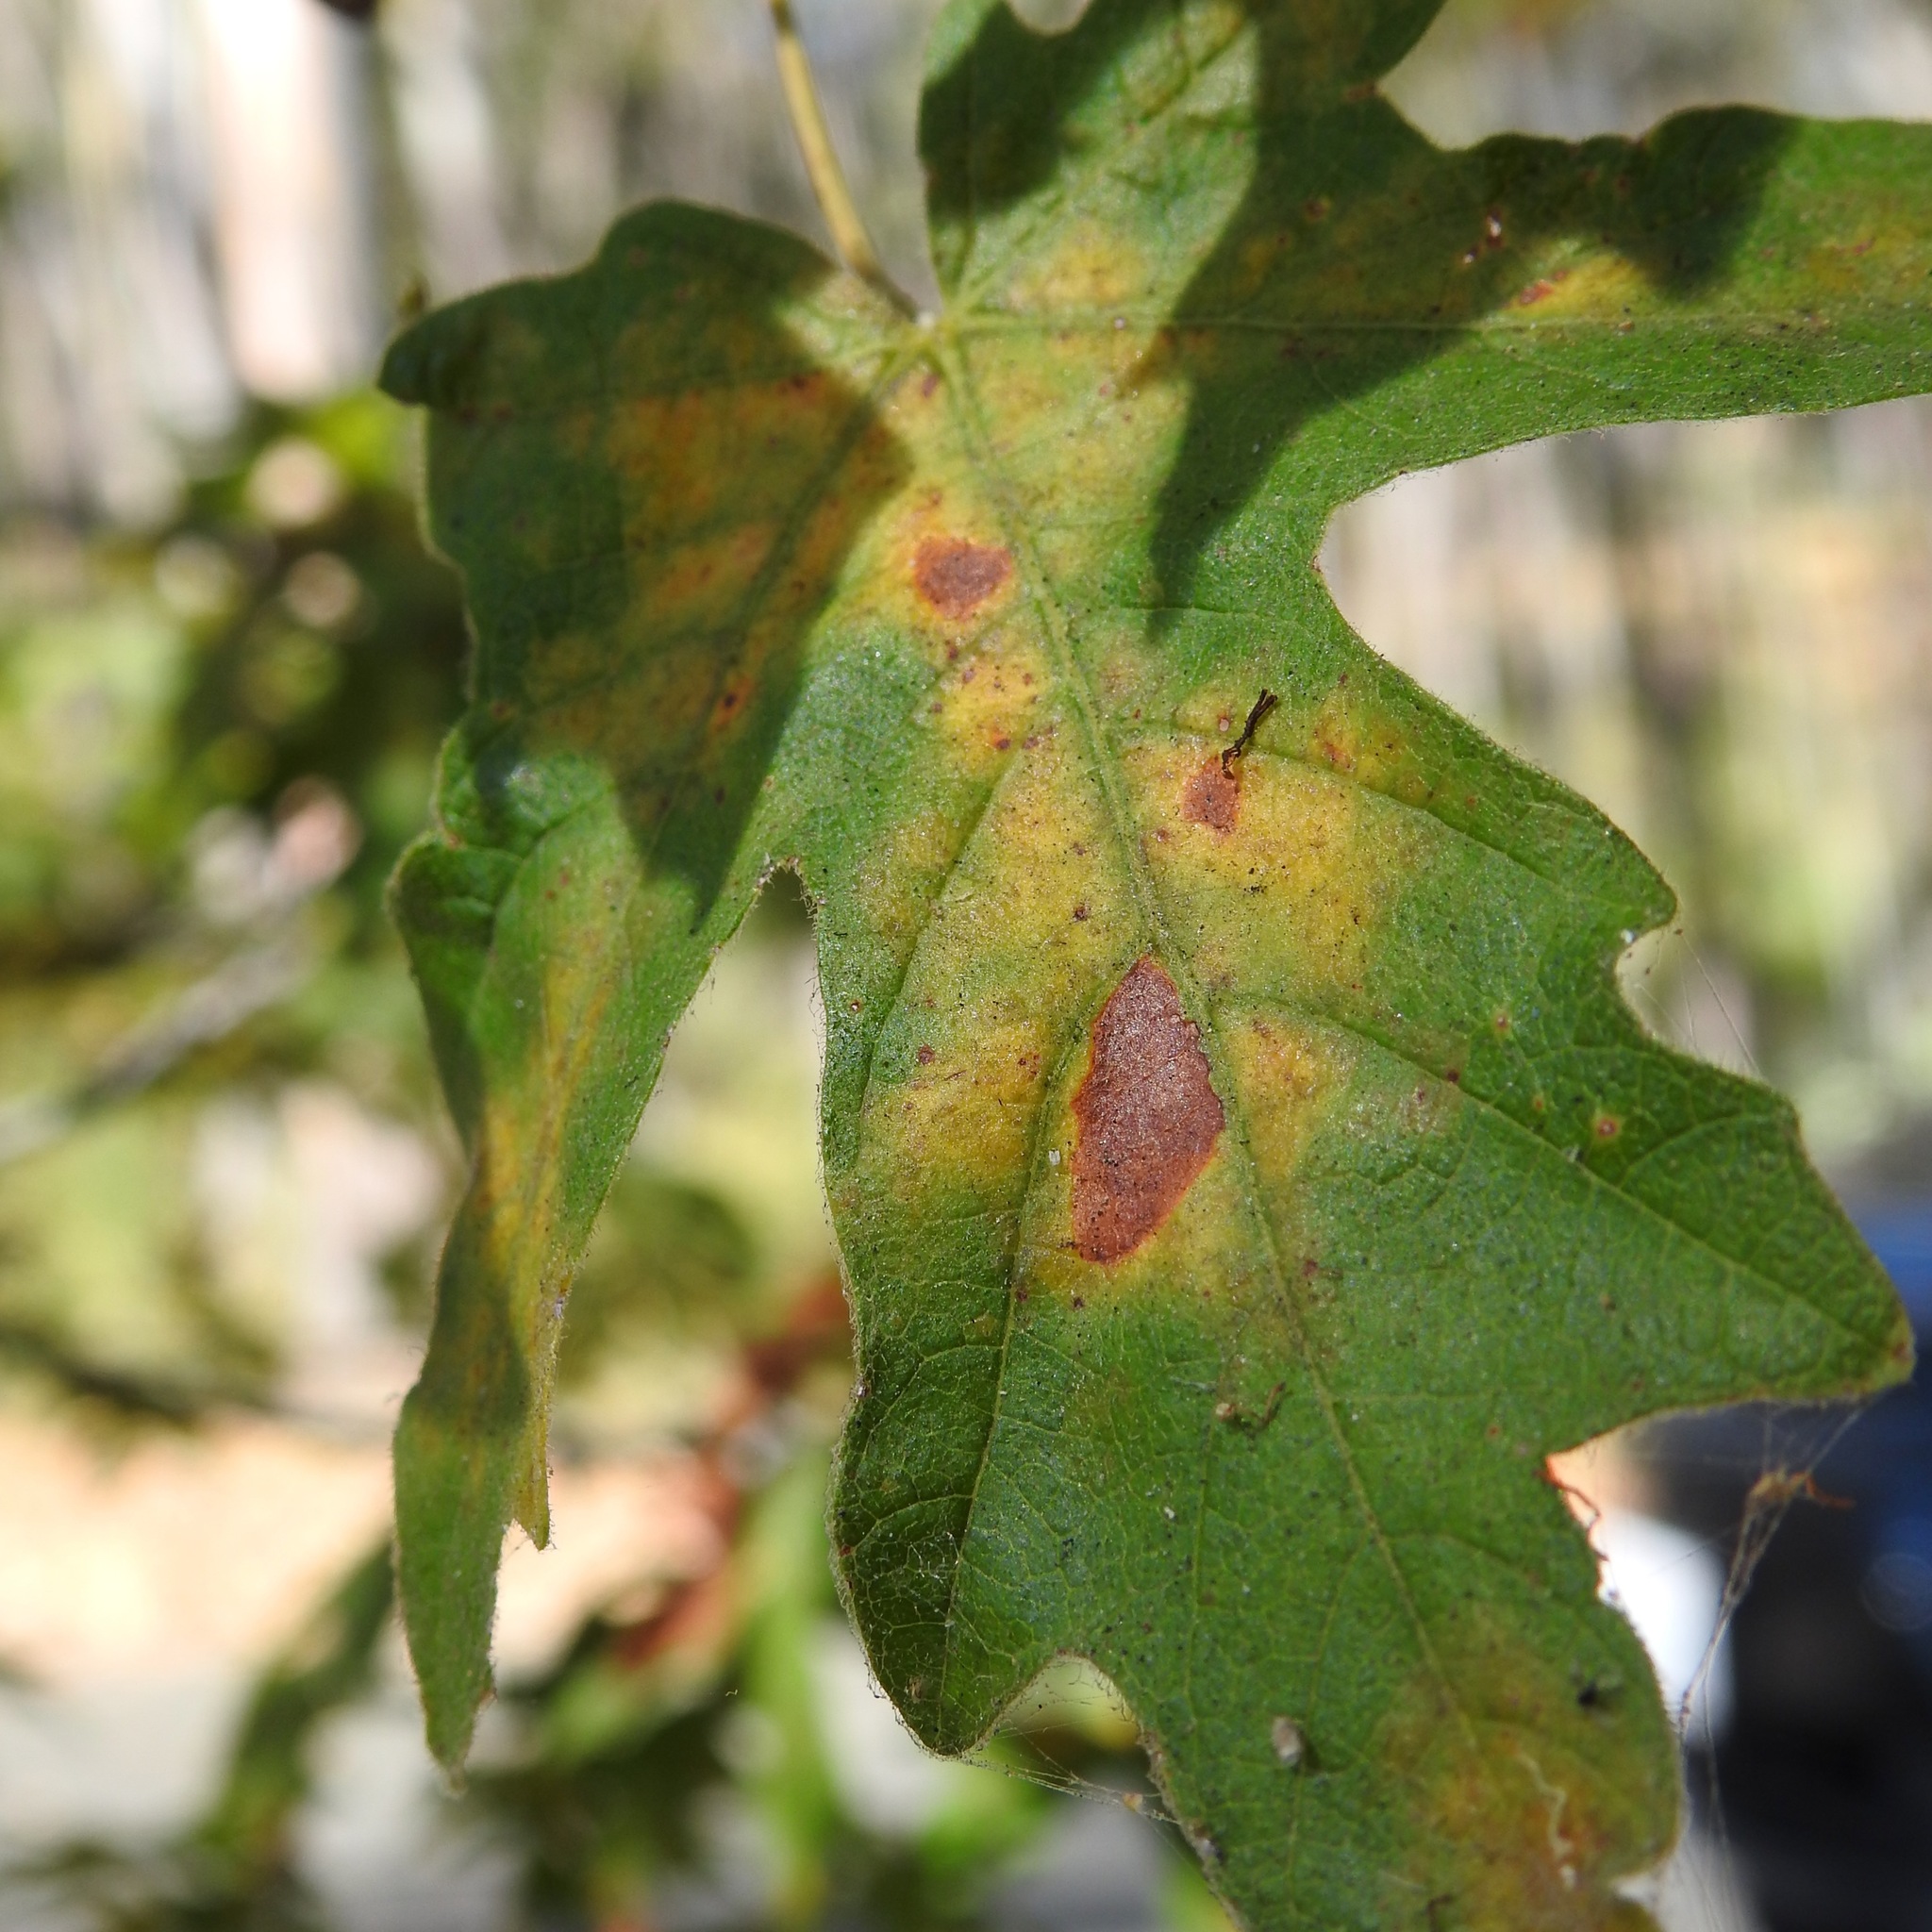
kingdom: Plantae
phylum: Tracheophyta
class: Magnoliopsida
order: Sapindales
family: Sapindaceae
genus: Acer
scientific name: Acer macrophyllum
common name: Oregon maple
